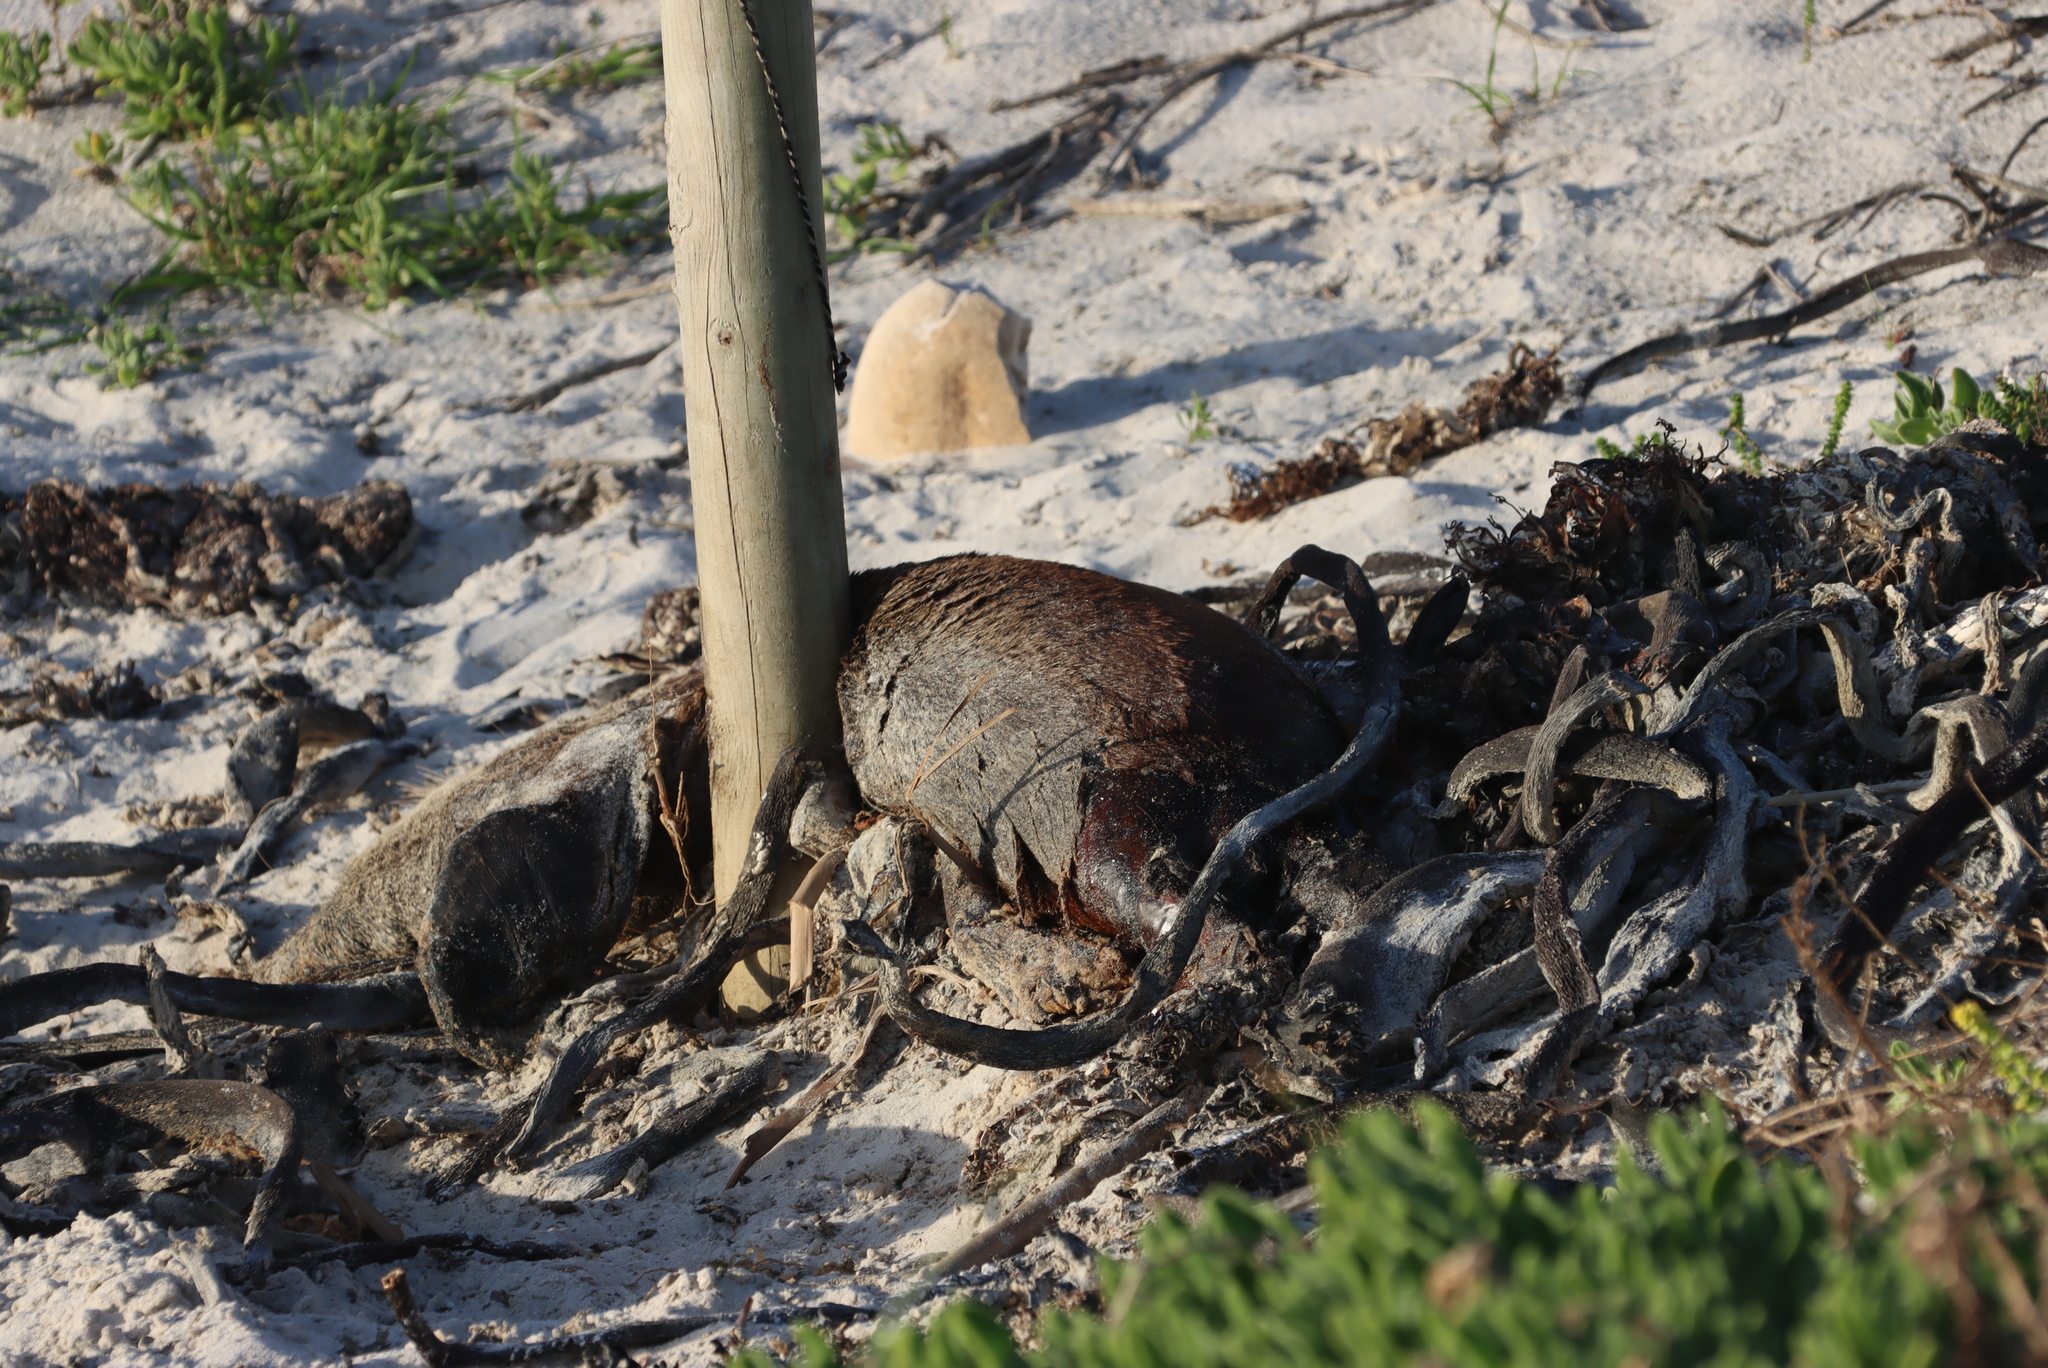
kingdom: Animalia
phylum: Chordata
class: Mammalia
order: Carnivora
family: Otariidae
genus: Arctocephalus
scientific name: Arctocephalus pusillus
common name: Brown fur seal
